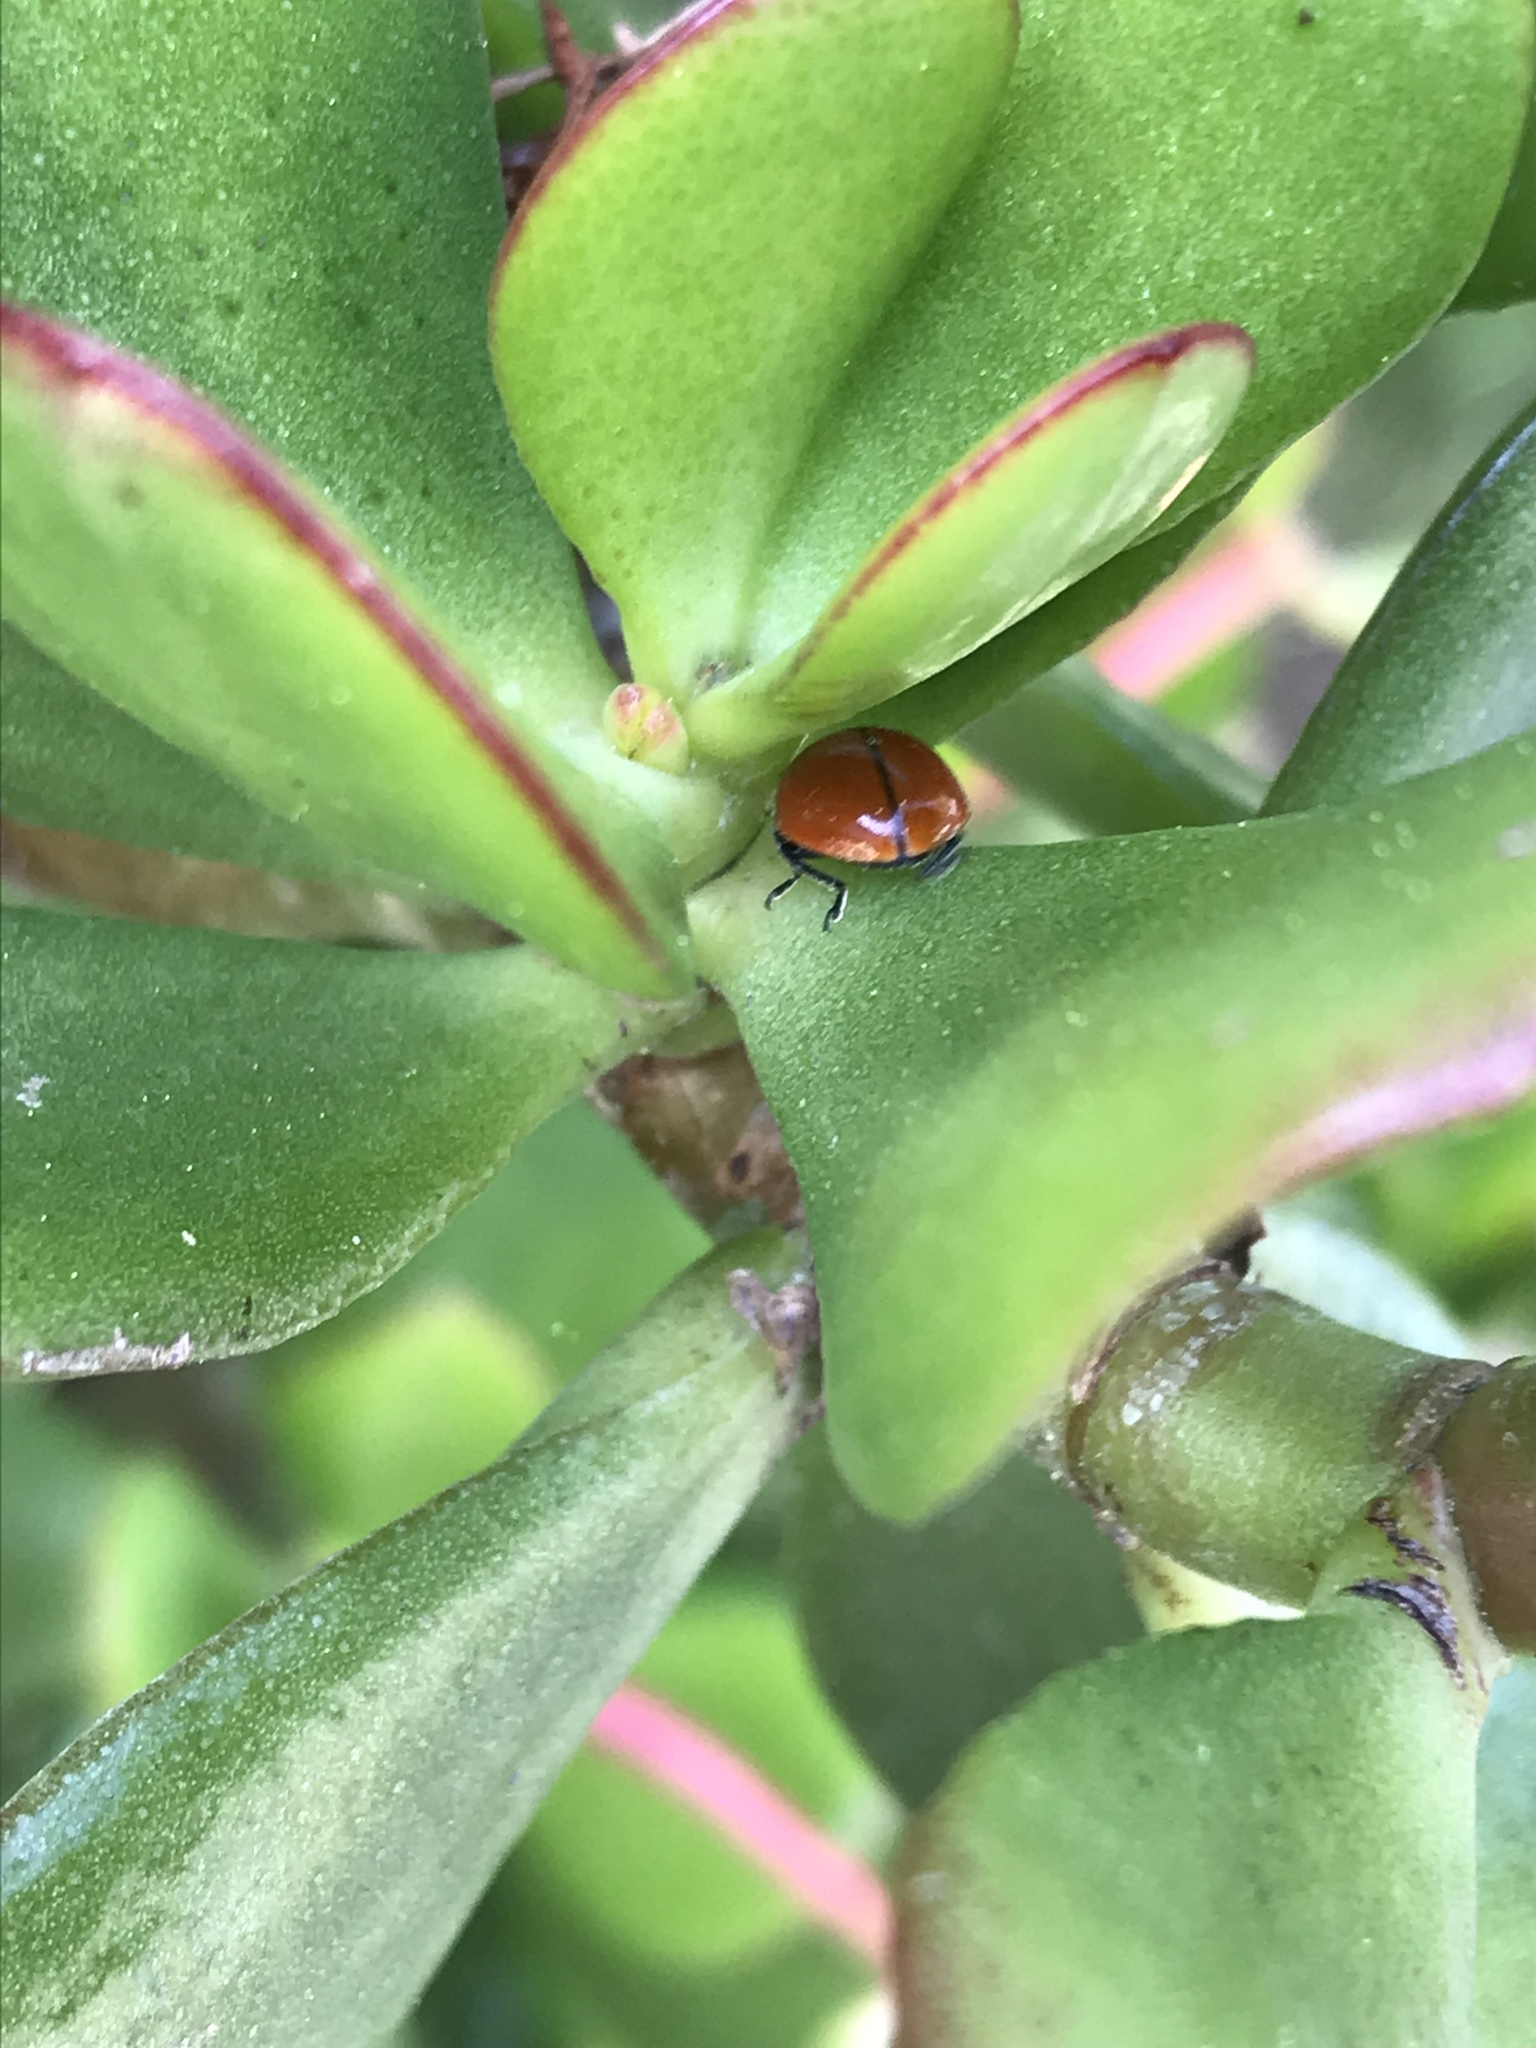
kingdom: Animalia
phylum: Arthropoda
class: Insecta
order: Coleoptera
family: Coccinellidae
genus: Coccinella
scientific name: Coccinella californica
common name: Lady beetle
